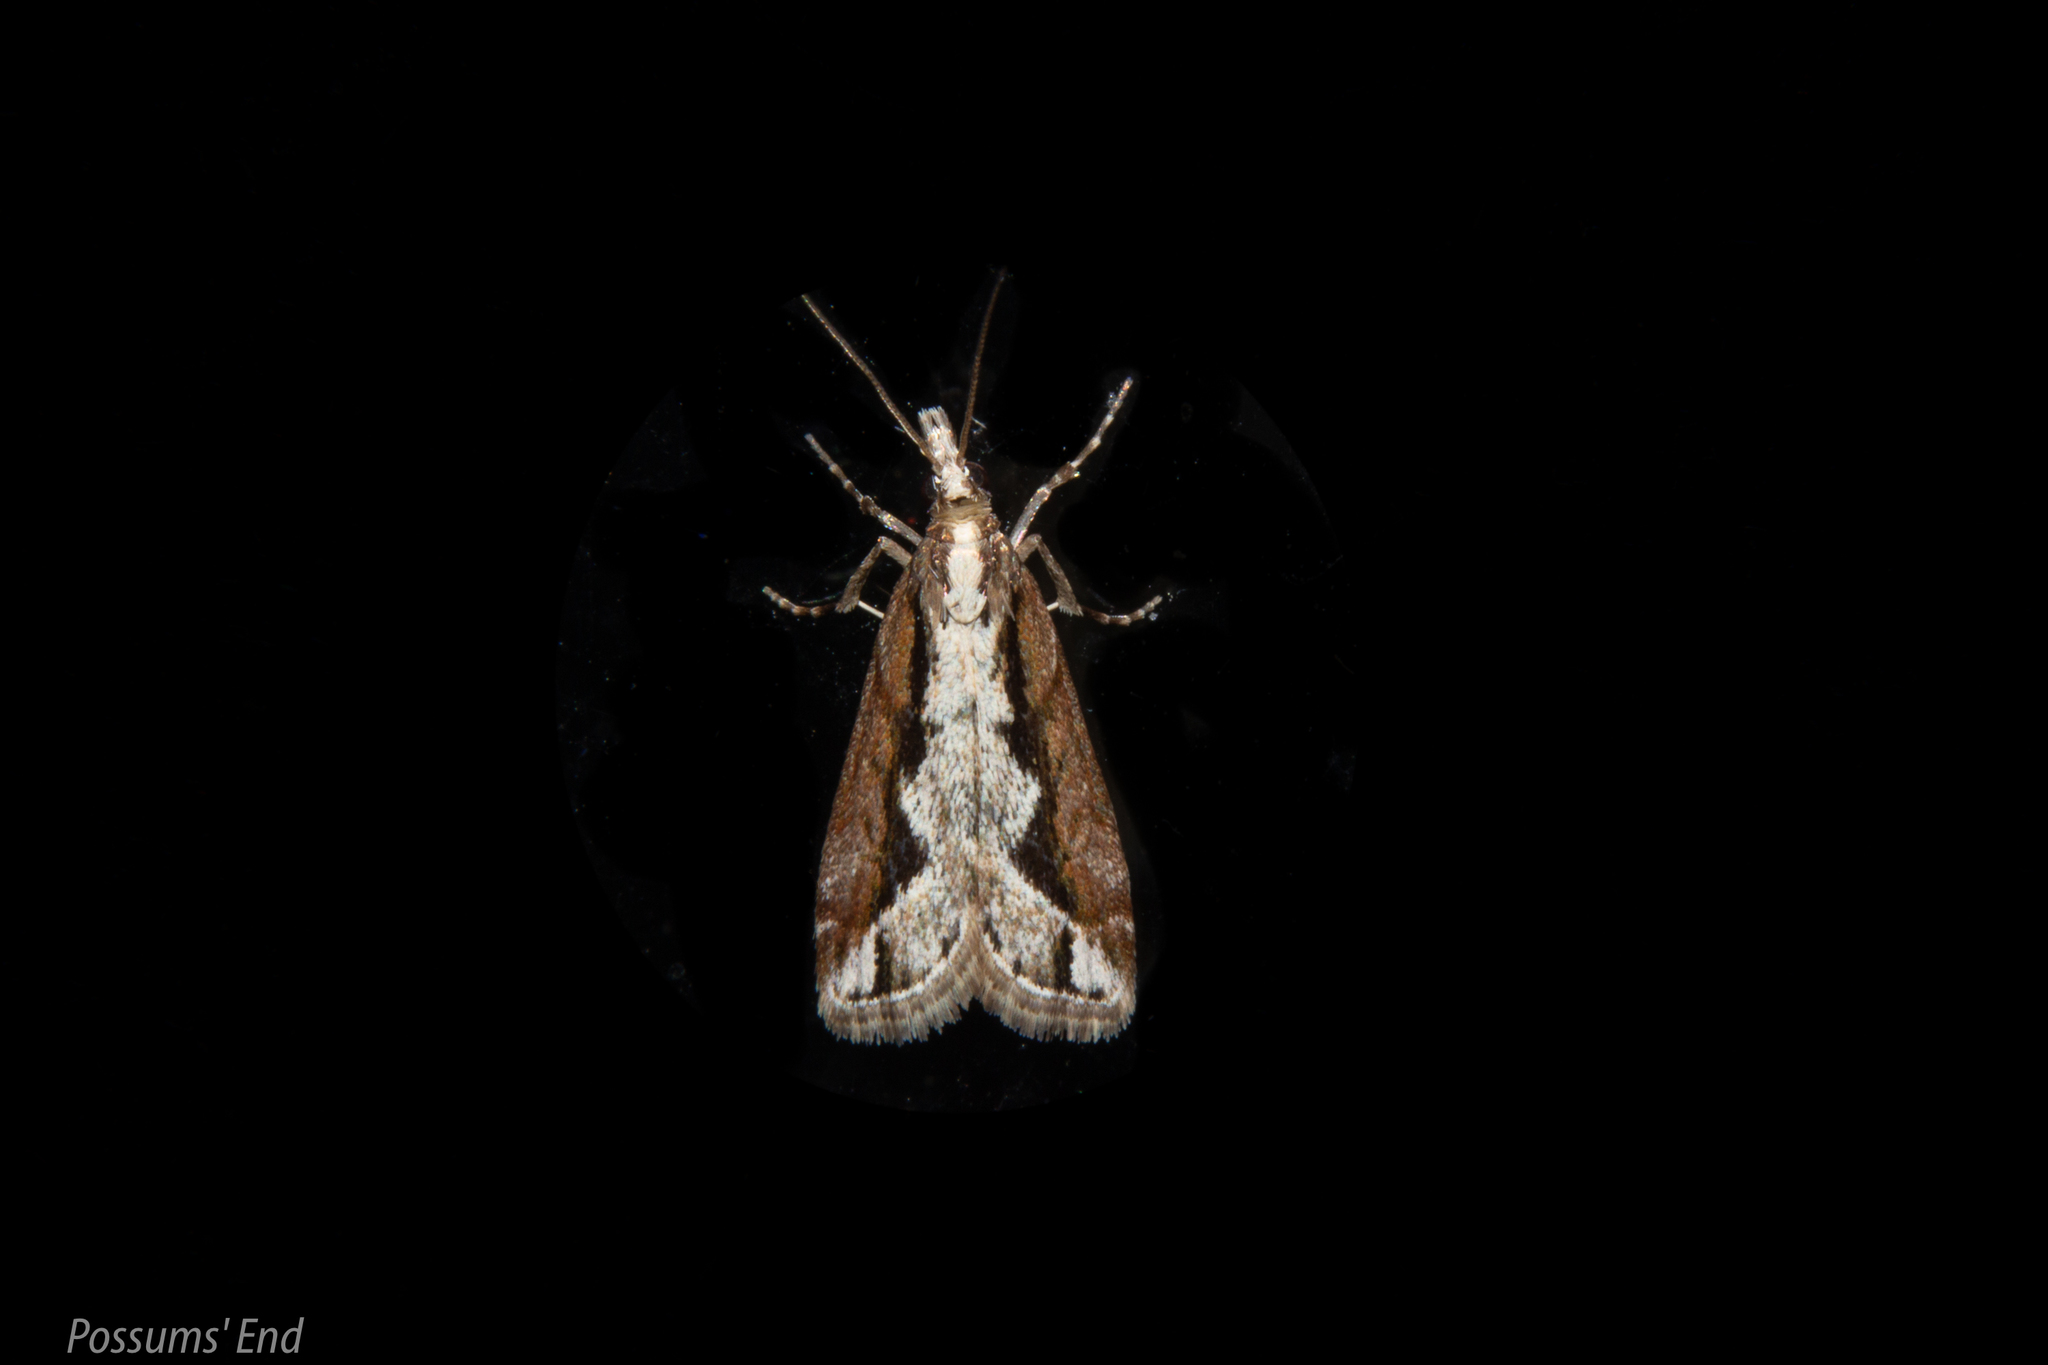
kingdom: Animalia
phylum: Arthropoda
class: Insecta
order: Lepidoptera
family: Crambidae
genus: Eudonia
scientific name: Eudonia steropaea
